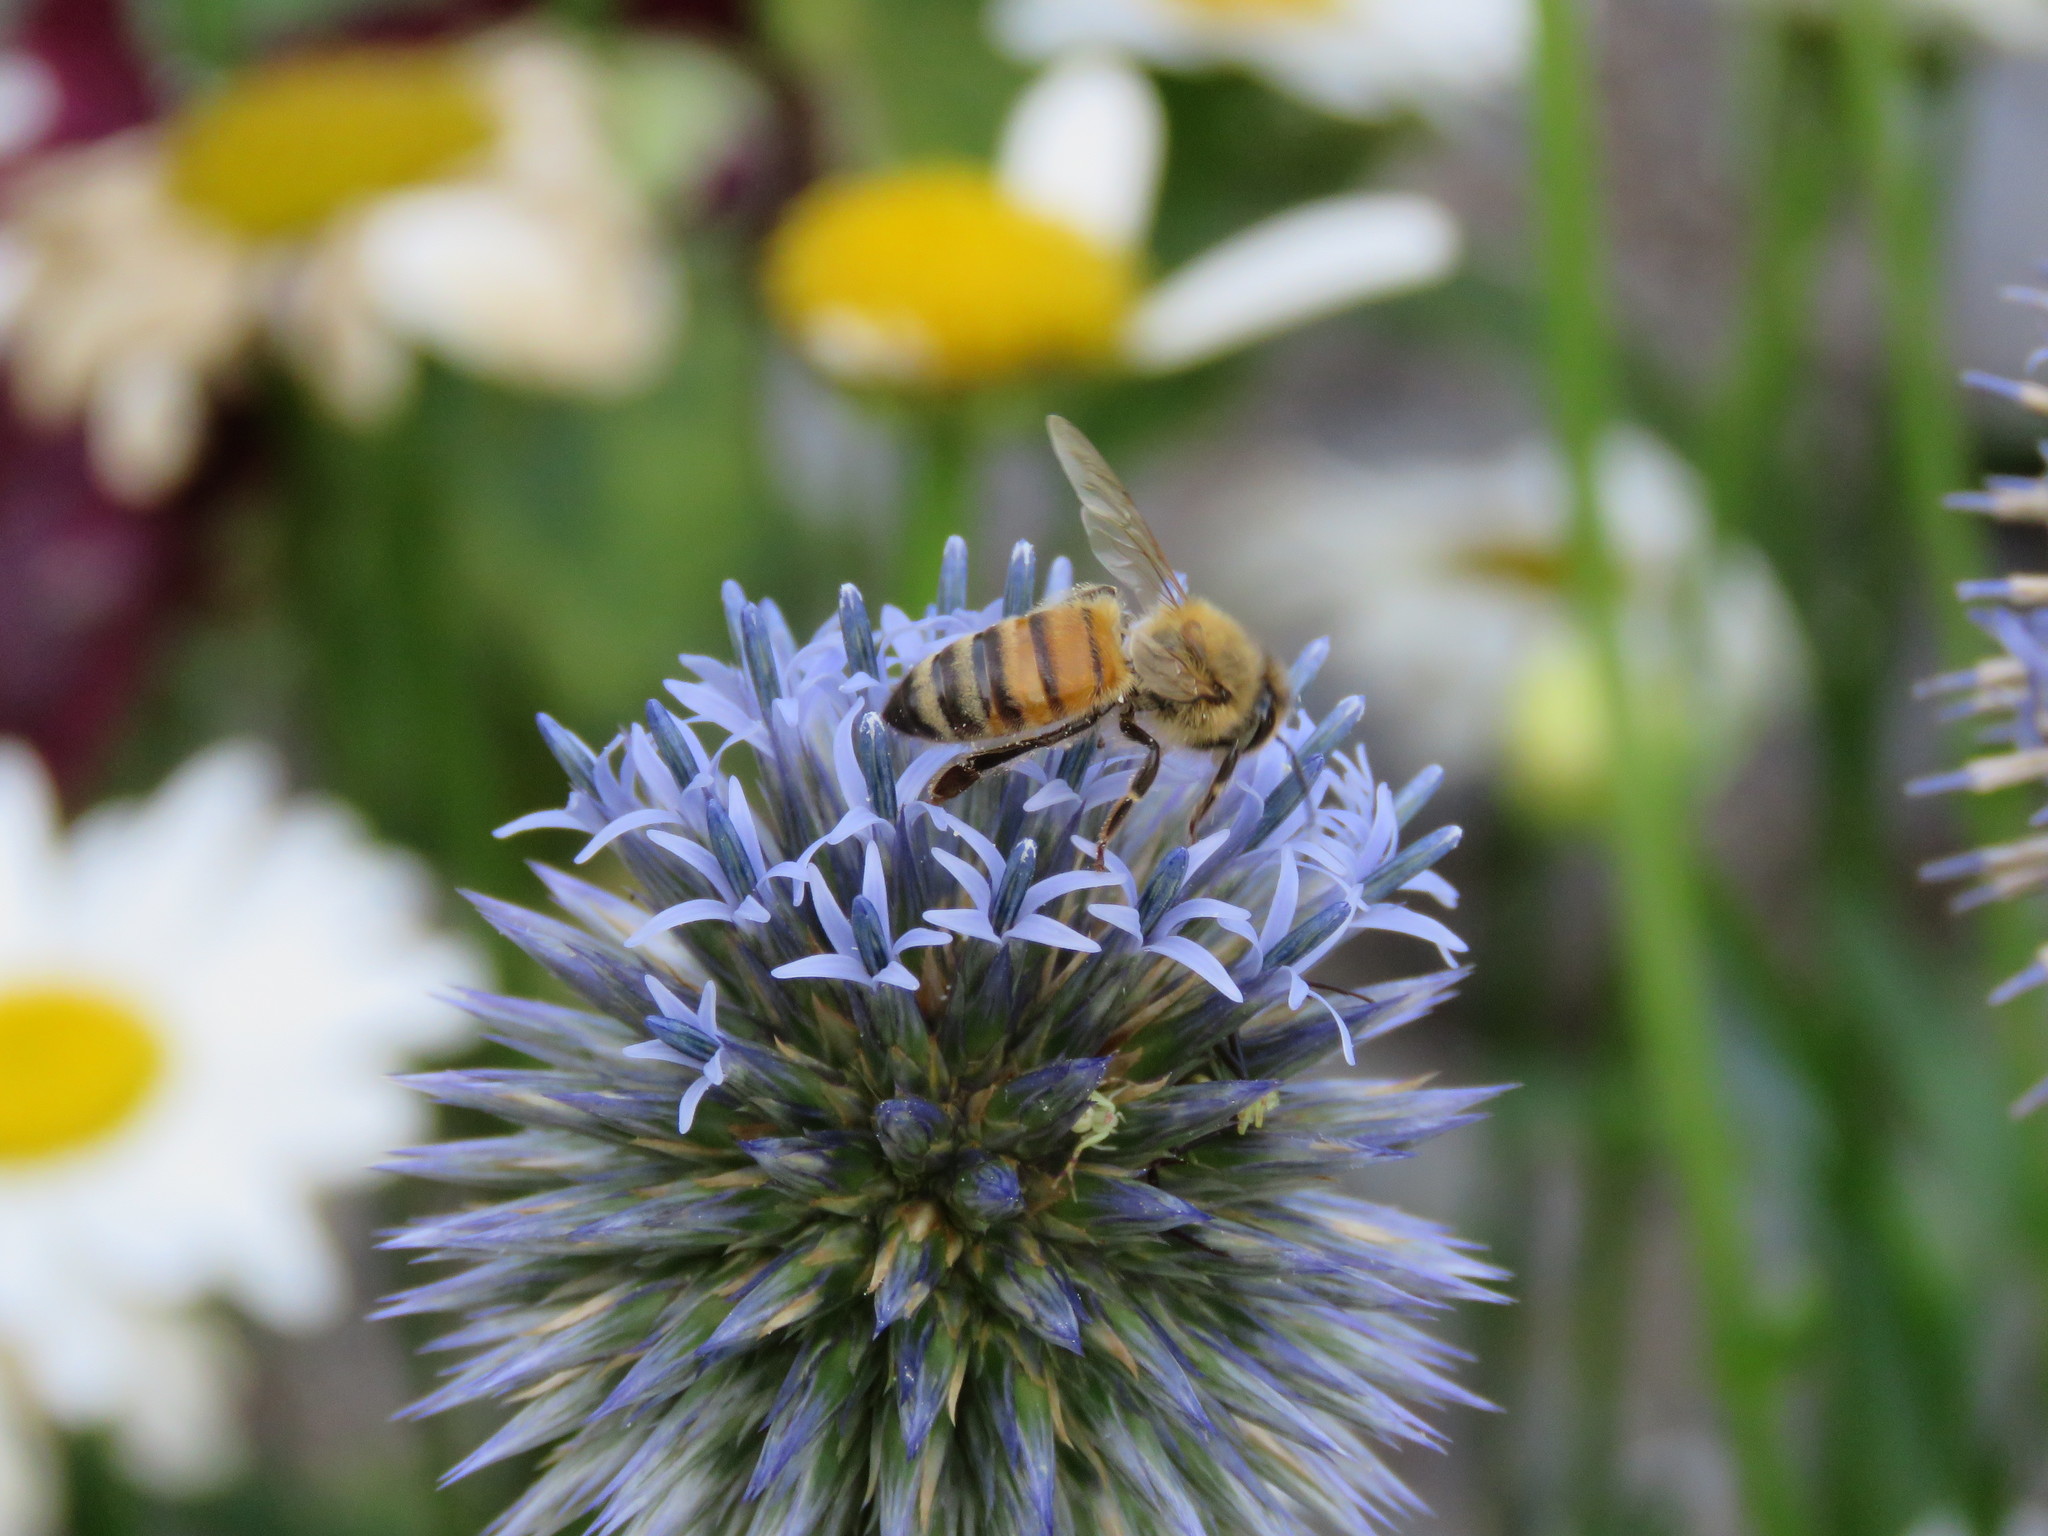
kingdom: Animalia
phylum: Arthropoda
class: Insecta
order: Hymenoptera
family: Apidae
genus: Apis
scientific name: Apis mellifera
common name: Honey bee
